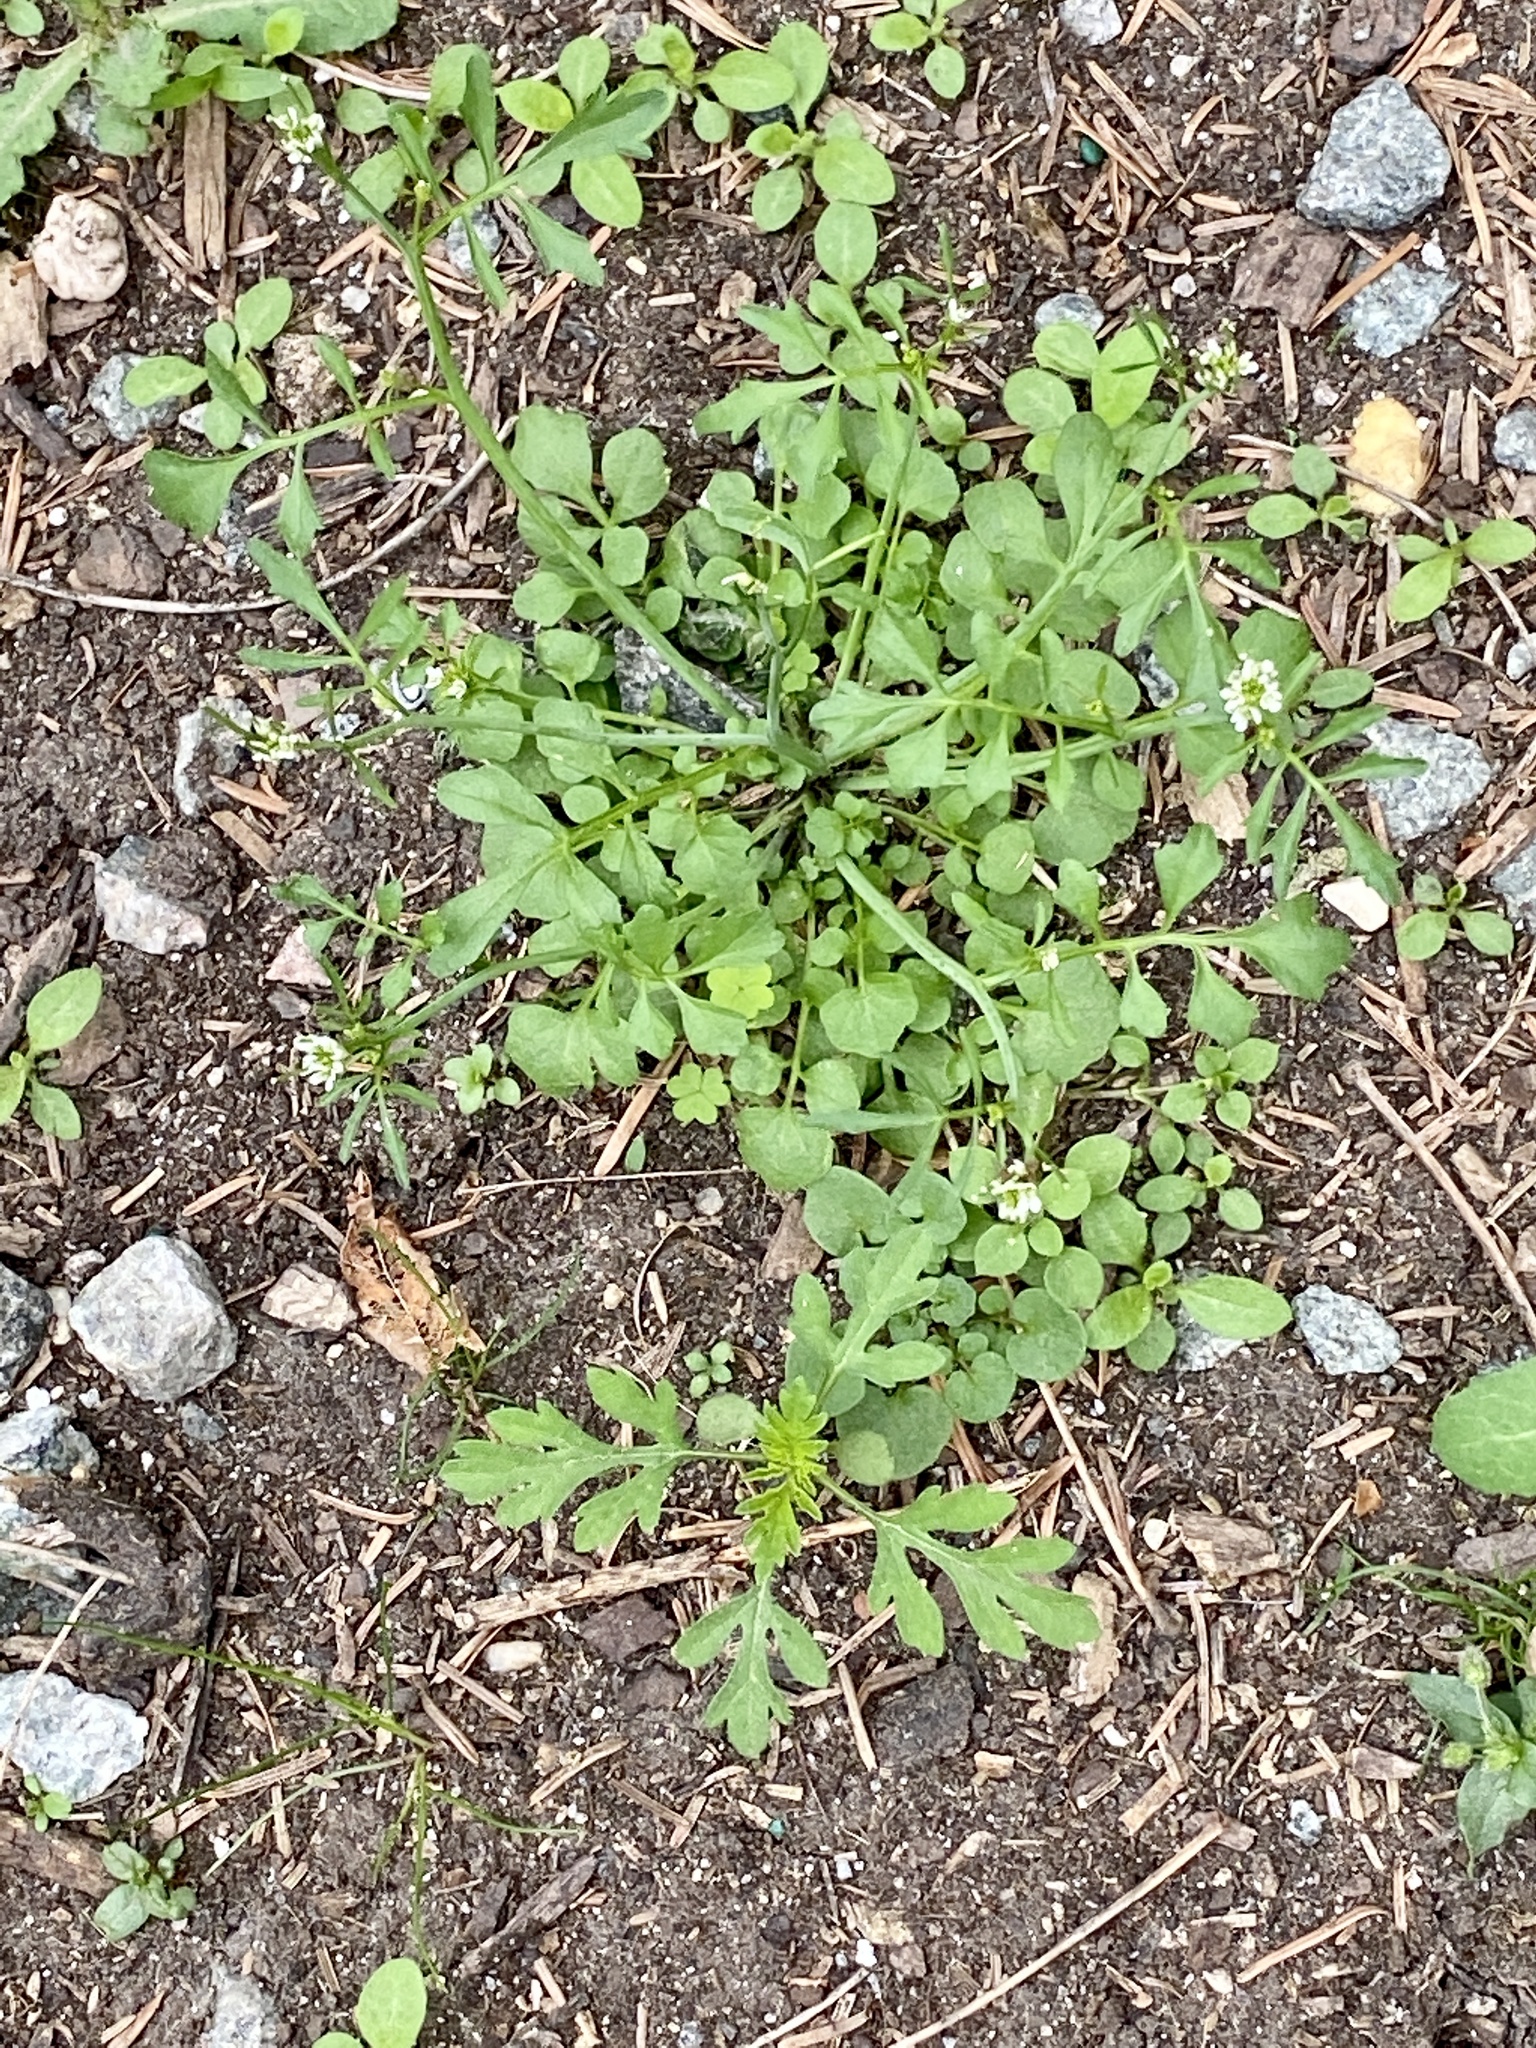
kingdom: Plantae
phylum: Tracheophyta
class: Magnoliopsida
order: Brassicales
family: Brassicaceae
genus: Cardamine
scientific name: Cardamine hirsuta
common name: Hairy bittercress
